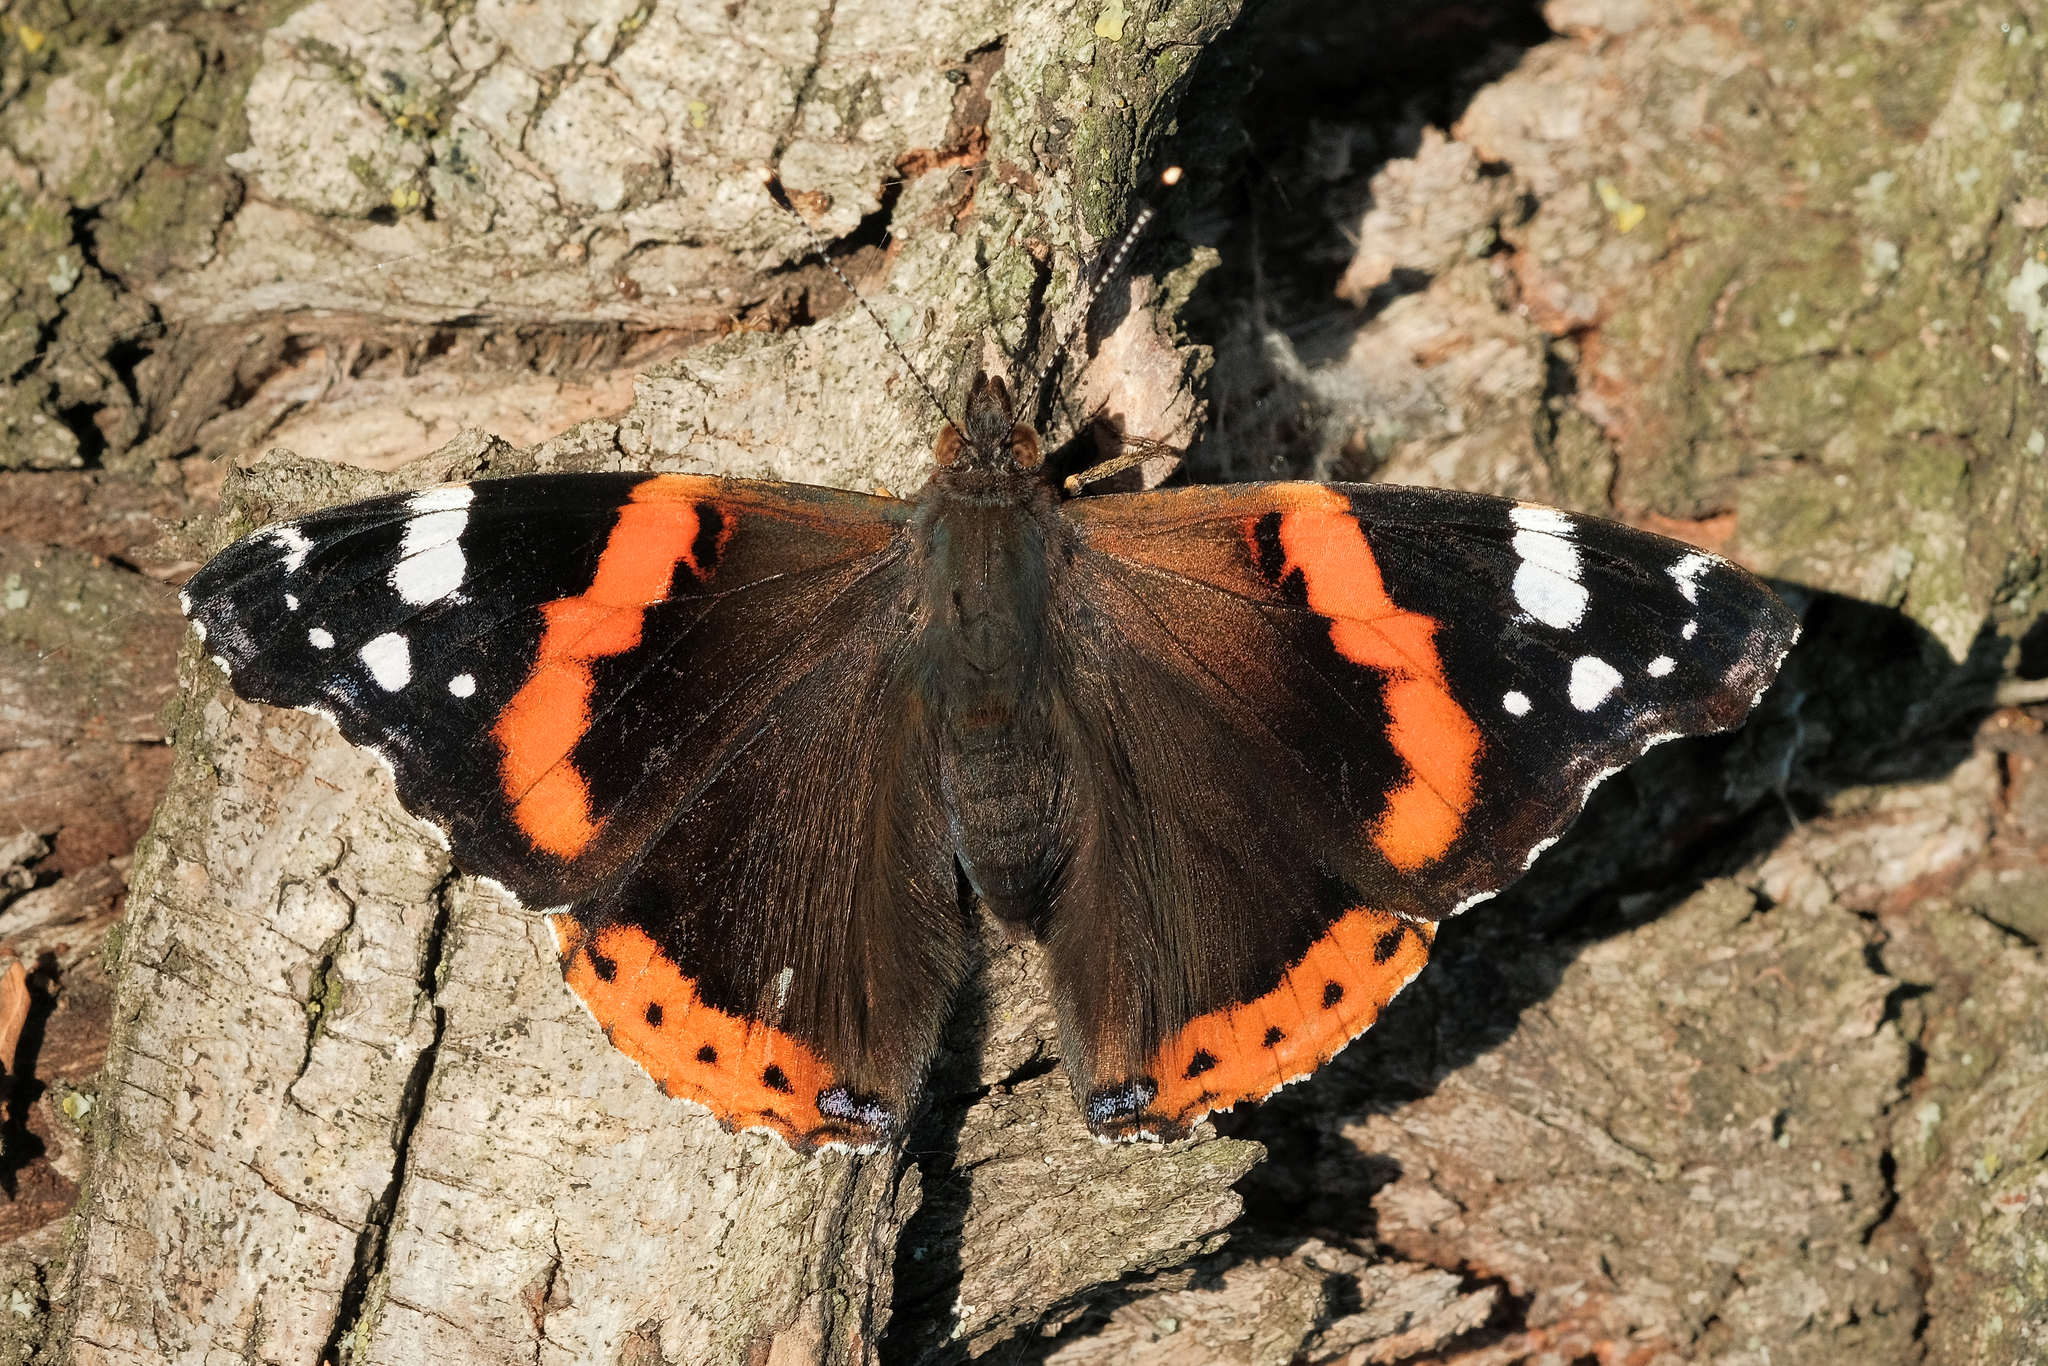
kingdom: Animalia
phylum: Arthropoda
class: Insecta
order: Lepidoptera
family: Nymphalidae
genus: Vanessa
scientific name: Vanessa atalanta
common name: Red admiral
